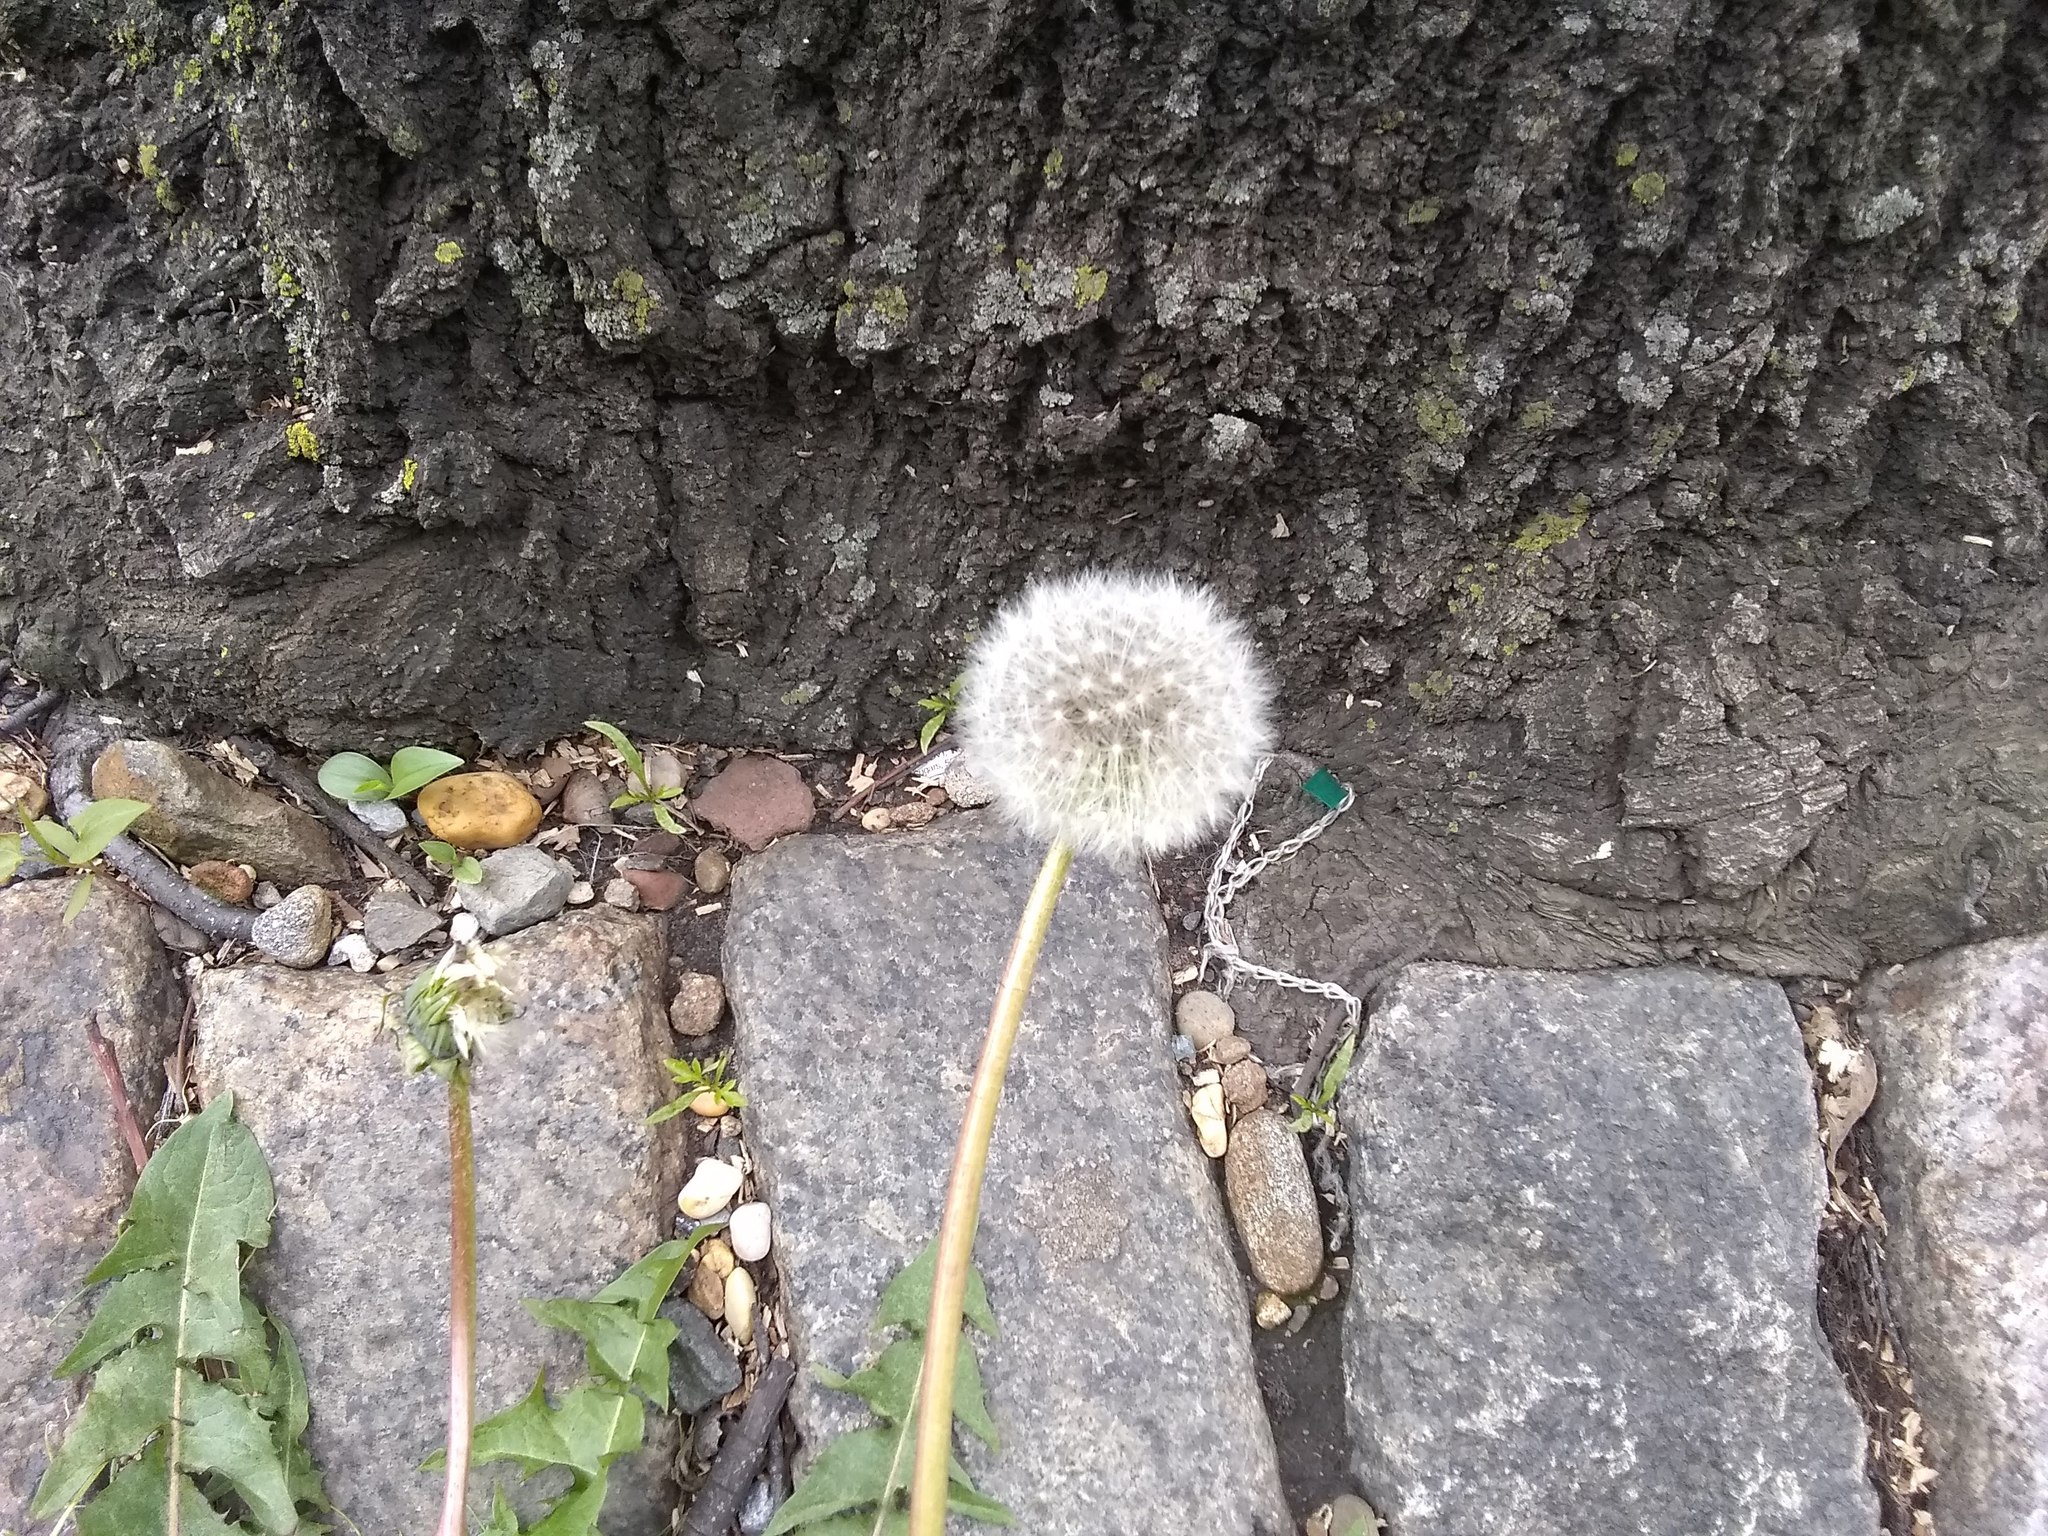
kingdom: Plantae
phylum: Tracheophyta
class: Magnoliopsida
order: Asterales
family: Asteraceae
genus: Taraxacum
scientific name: Taraxacum officinale
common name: Common dandelion
